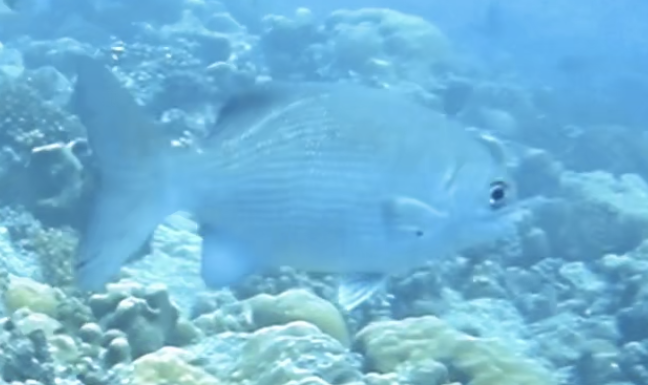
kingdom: Animalia
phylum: Chordata
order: Perciformes
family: Kyphosidae
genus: Kyphosus
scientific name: Kyphosus cinerascens
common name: Topsail drummer
